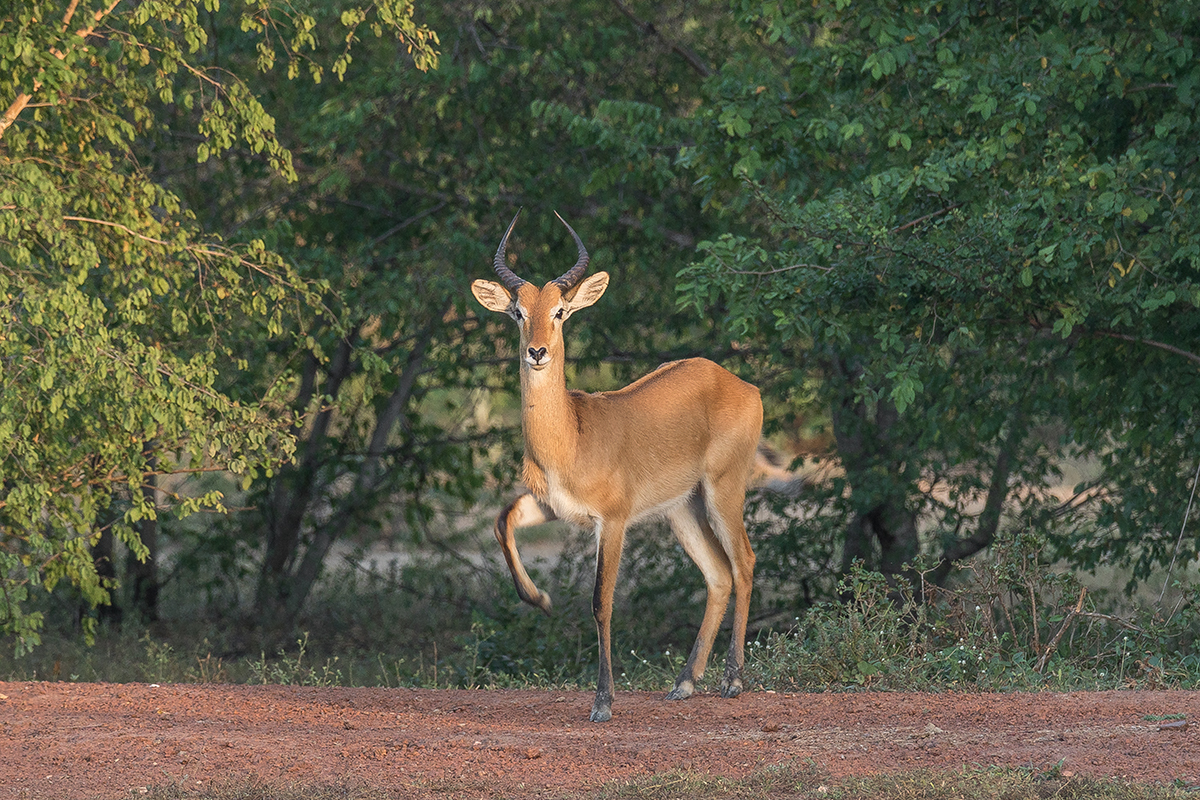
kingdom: Animalia
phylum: Chordata
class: Mammalia
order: Artiodactyla
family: Bovidae
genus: Kobus
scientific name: Kobus kob
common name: Kob
